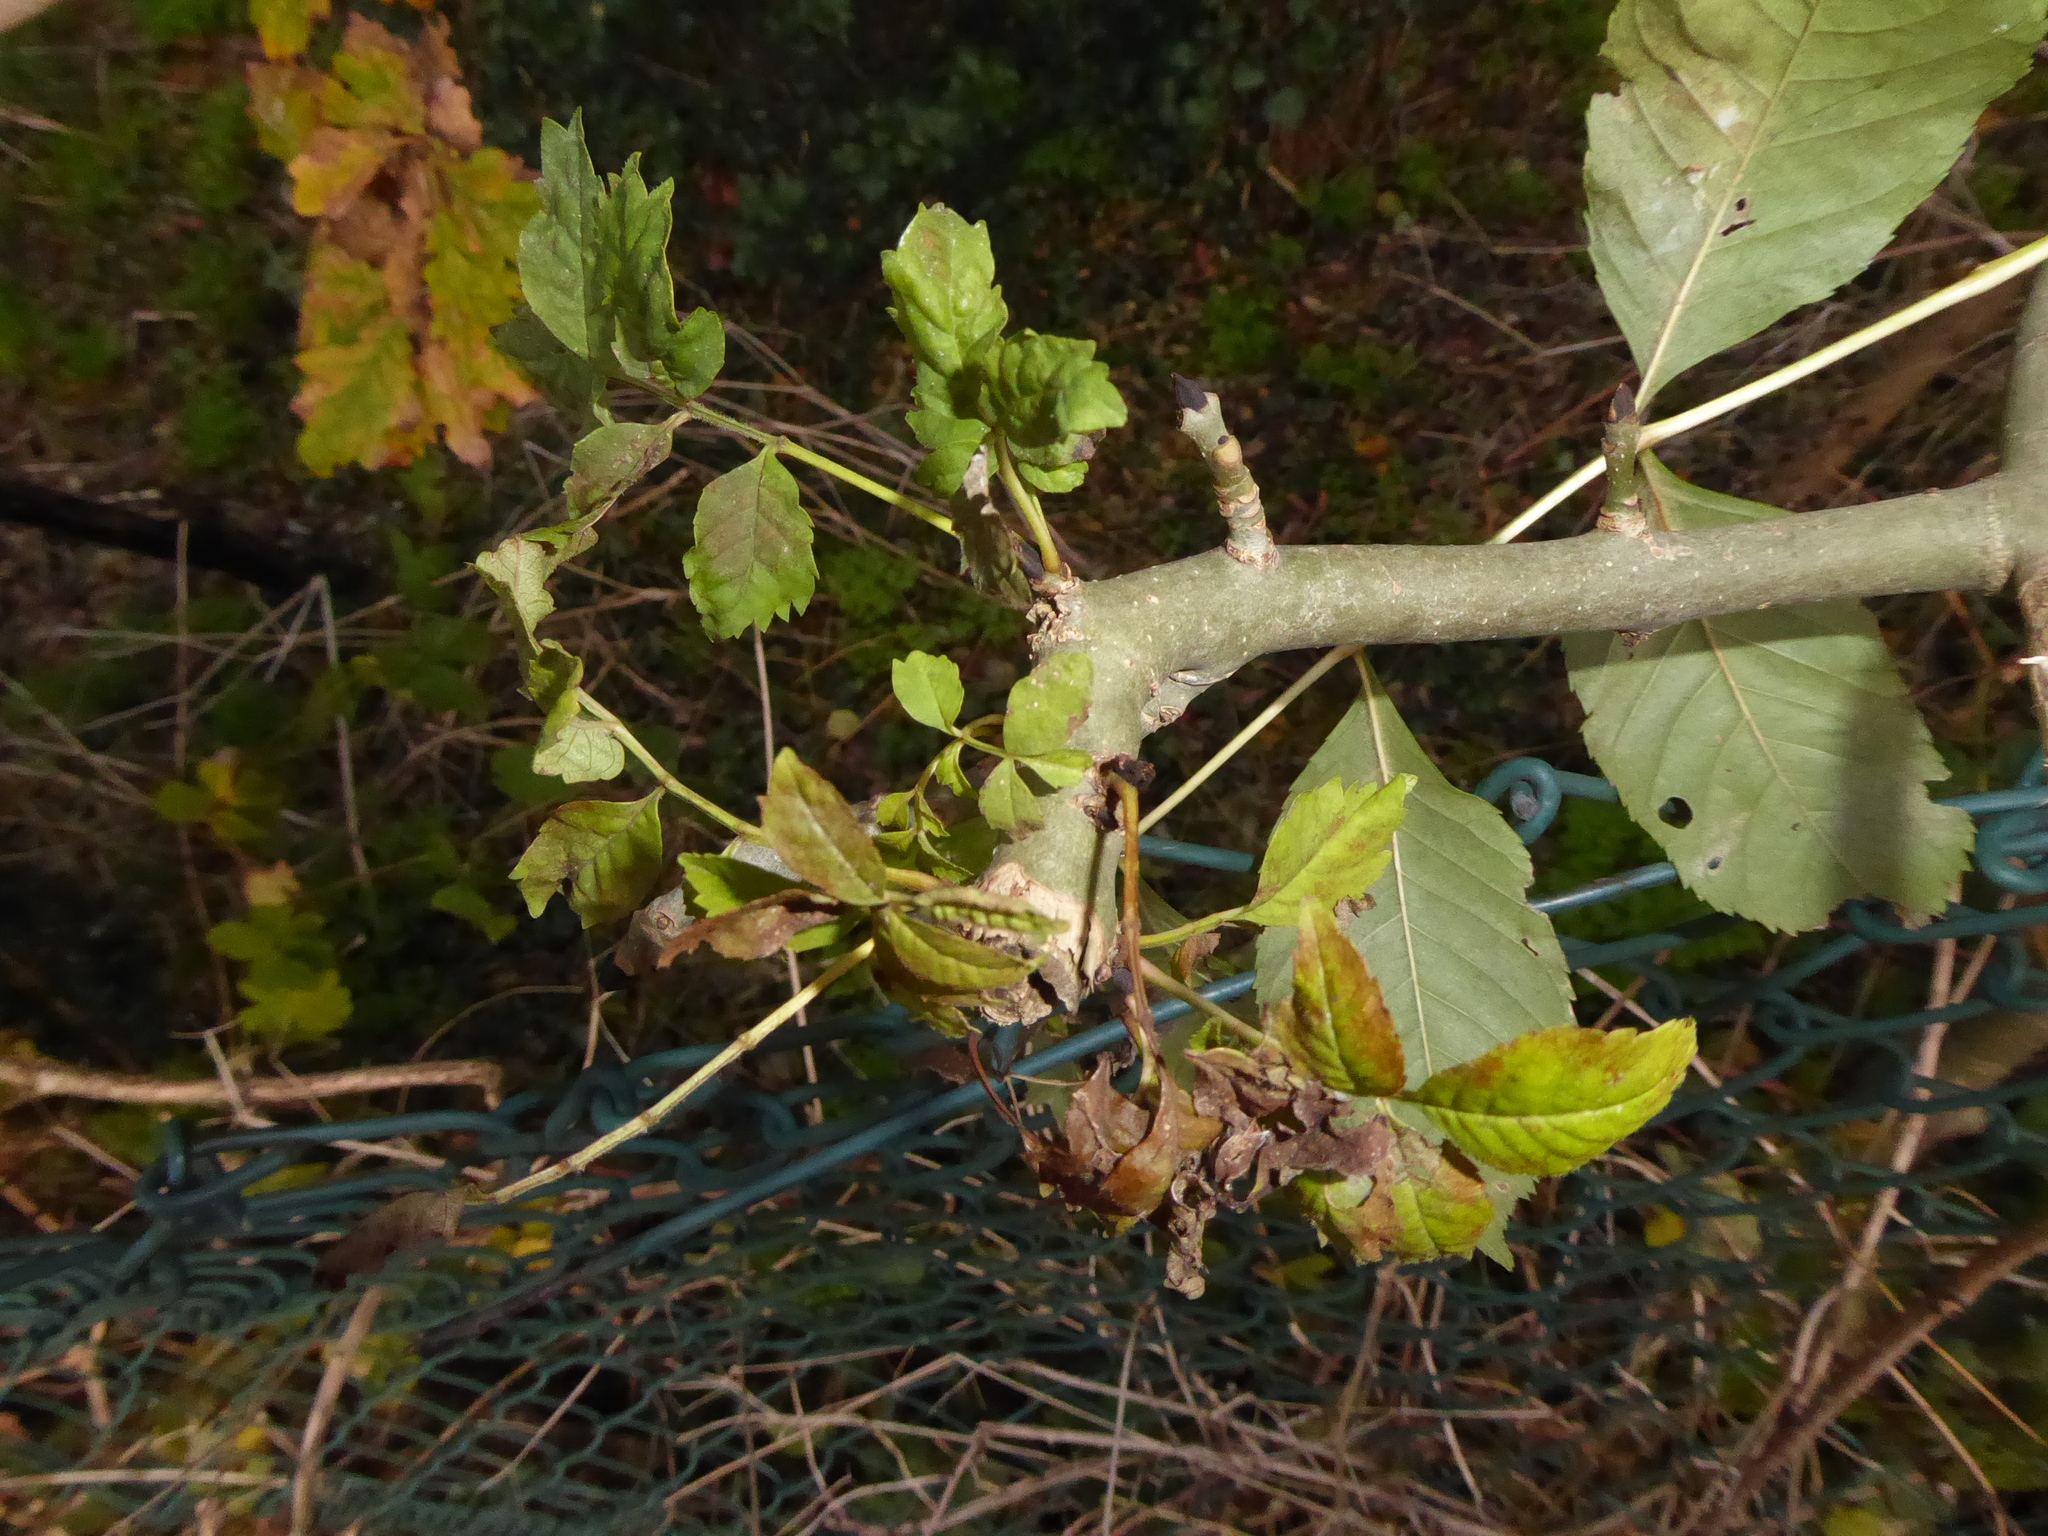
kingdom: Plantae
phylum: Tracheophyta
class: Magnoliopsida
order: Lamiales
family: Oleaceae
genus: Fraxinus
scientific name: Fraxinus excelsior
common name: European ash
